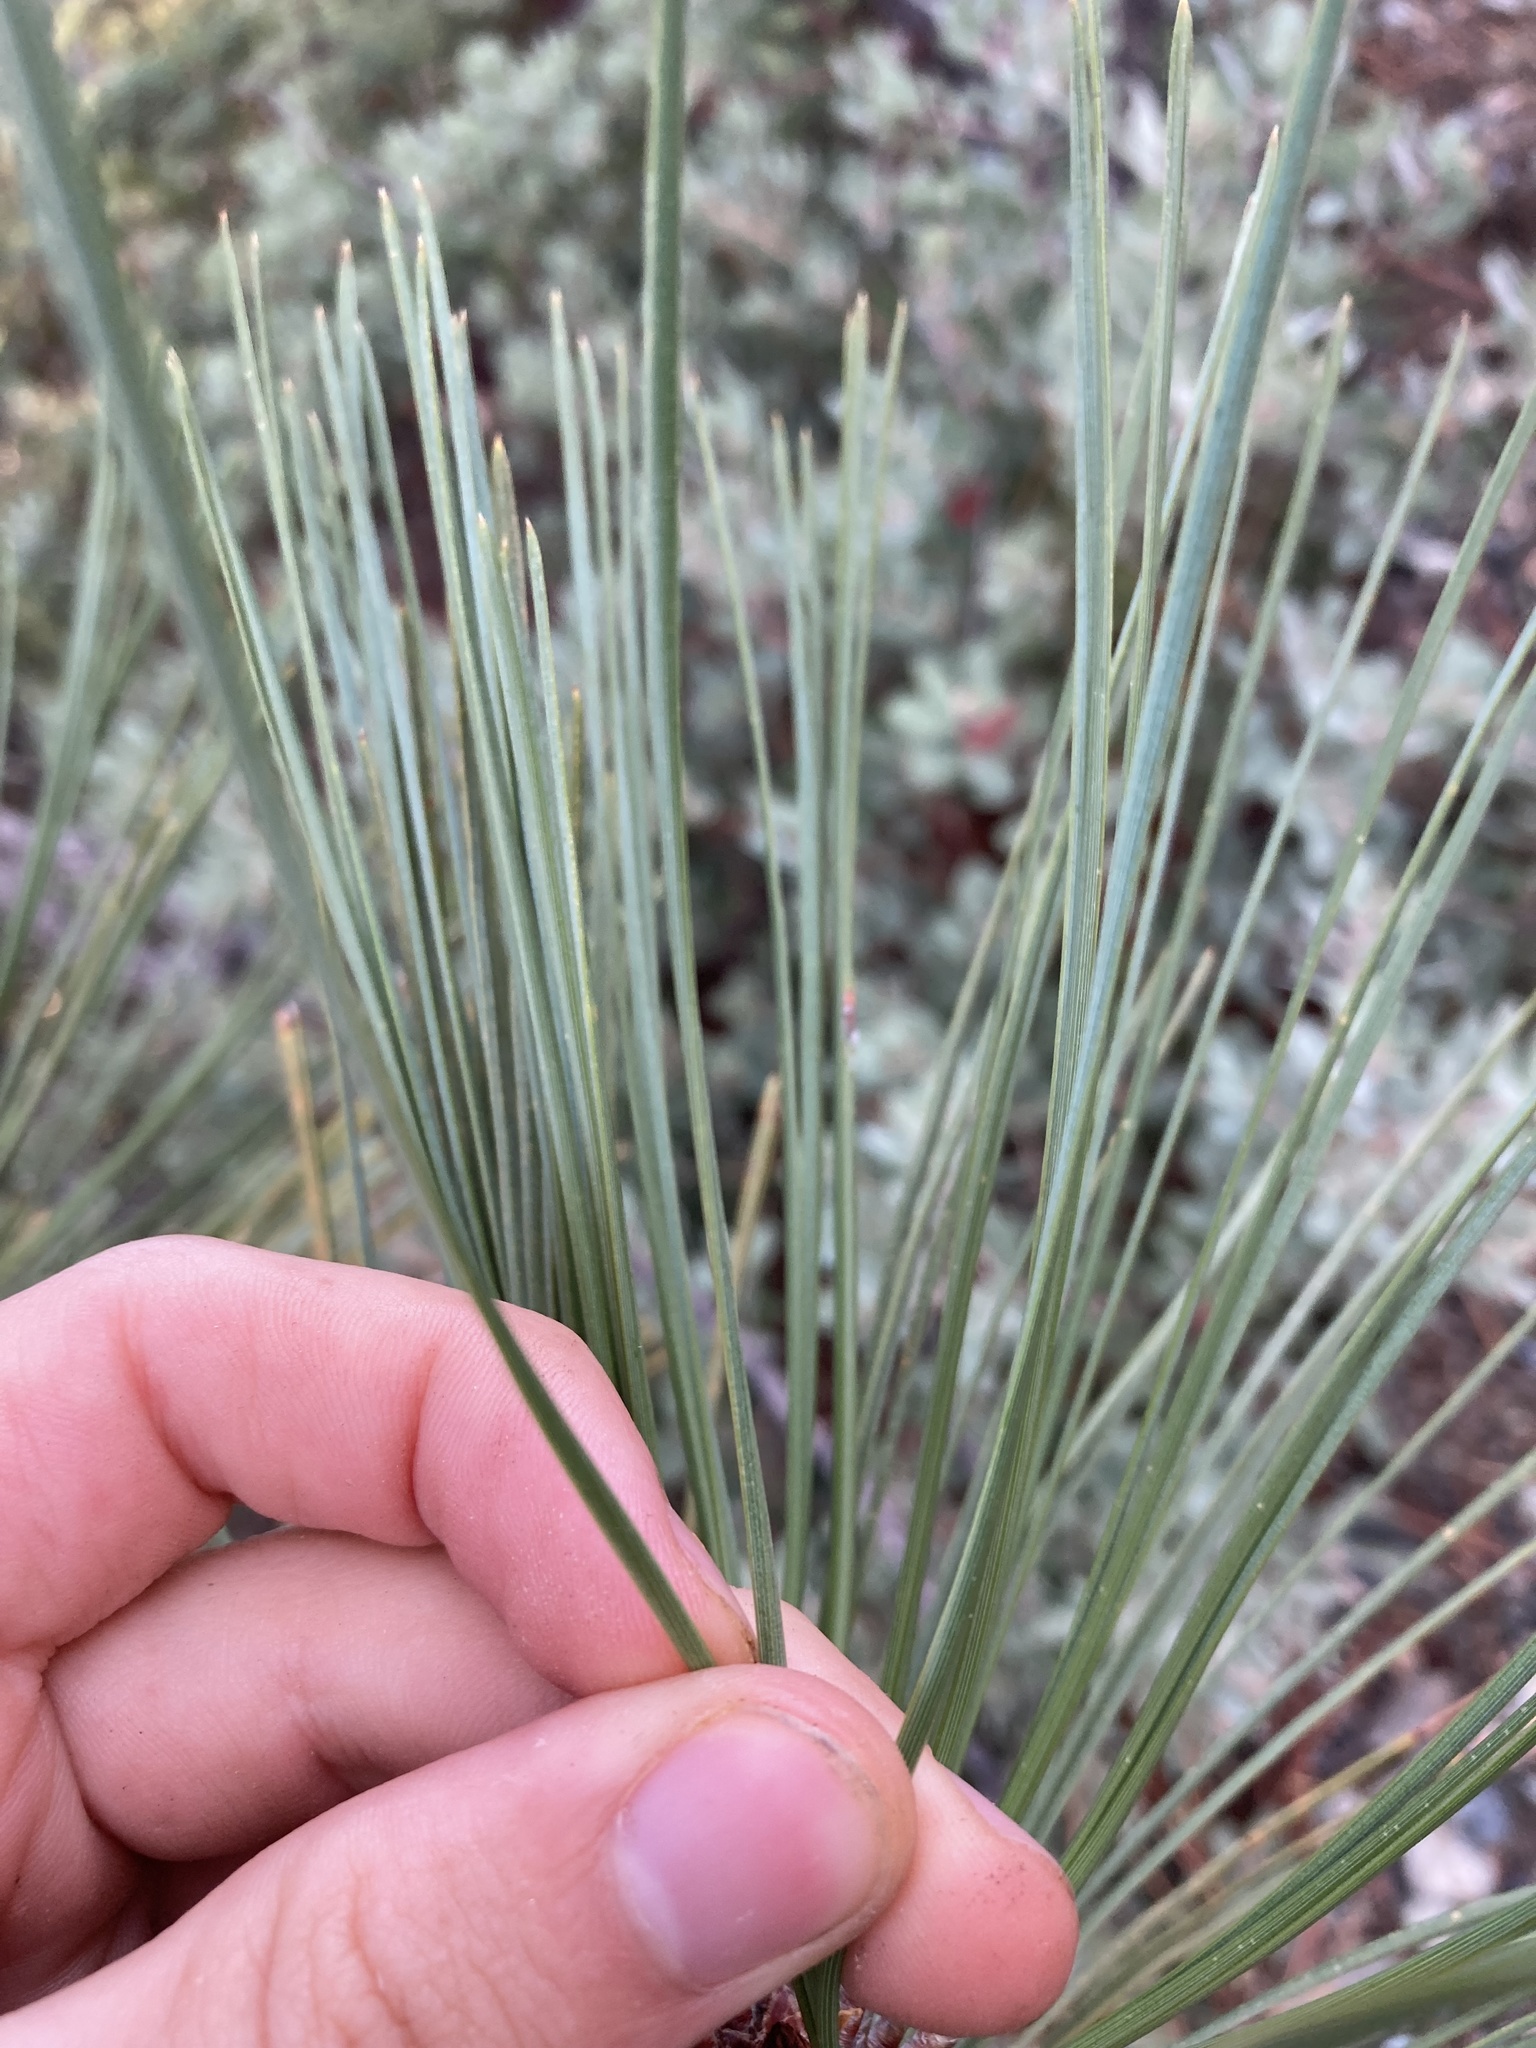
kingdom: Plantae
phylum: Tracheophyta
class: Pinopsida
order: Pinales
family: Pinaceae
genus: Pinus
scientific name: Pinus jeffreyi
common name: Jeffrey pine
